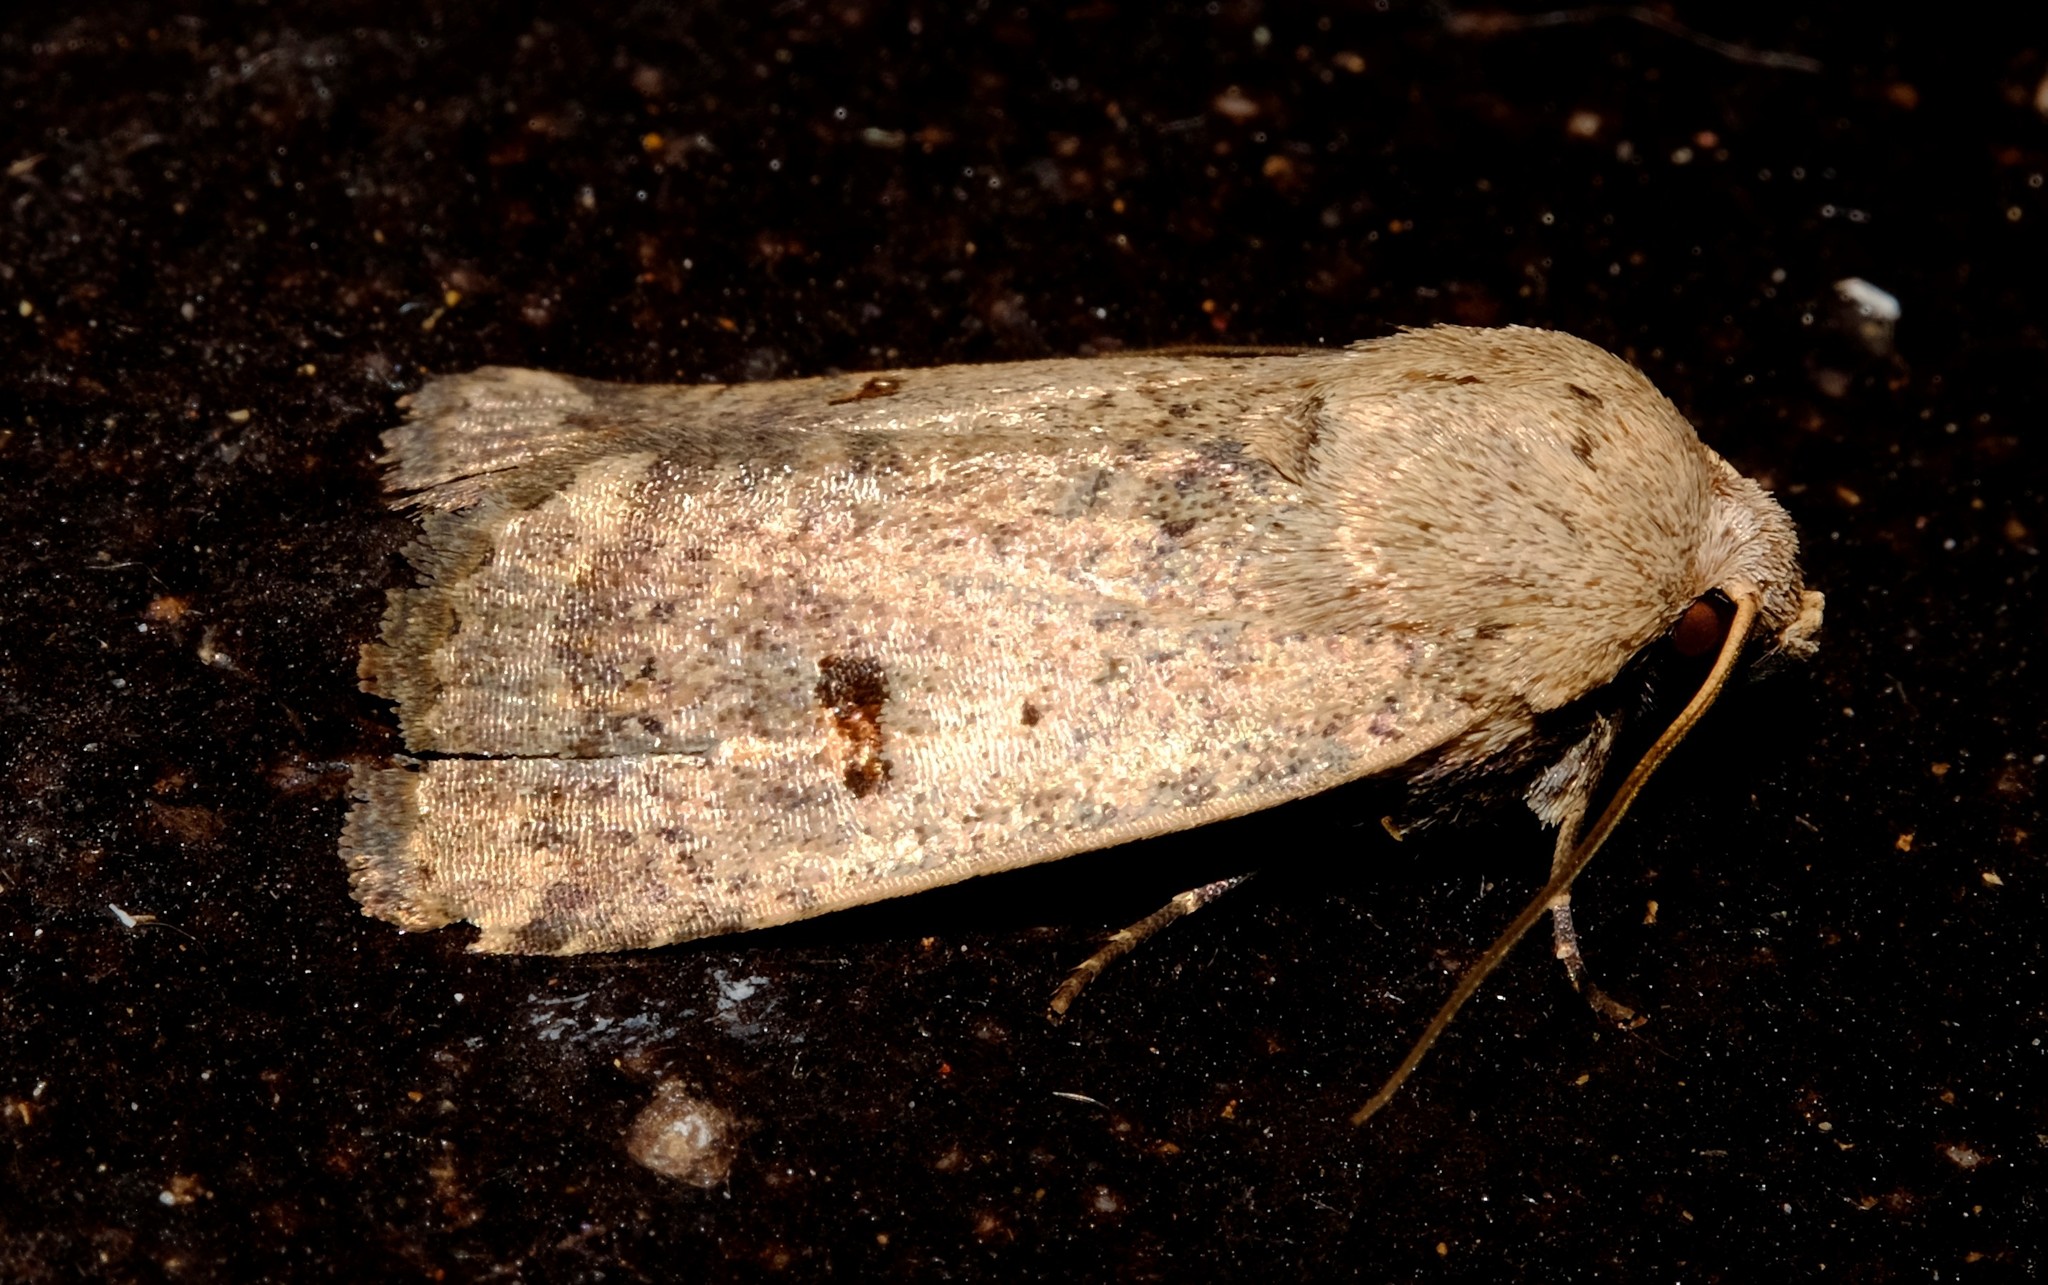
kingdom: Animalia
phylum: Arthropoda
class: Insecta
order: Lepidoptera
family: Noctuidae
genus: Proteuxoa
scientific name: Proteuxoa hypochalchis
